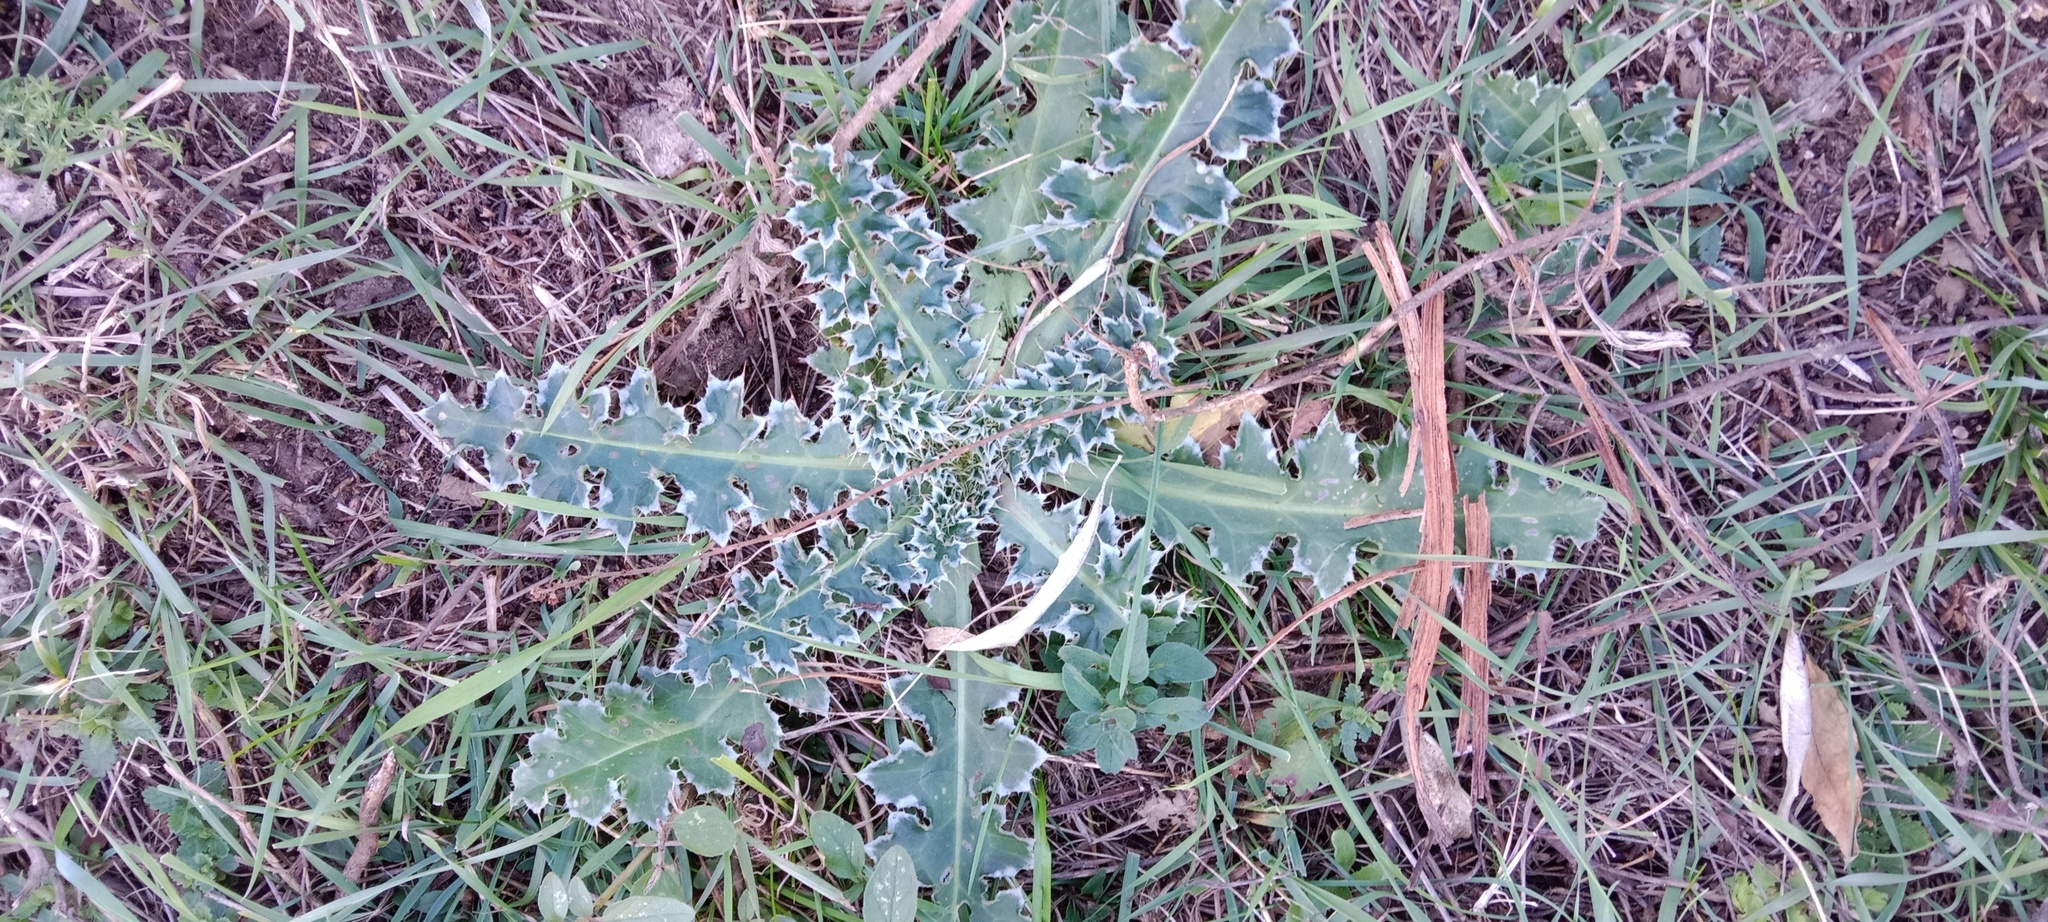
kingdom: Plantae
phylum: Tracheophyta
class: Magnoliopsida
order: Asterales
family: Asteraceae
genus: Carduus
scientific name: Carduus acanthoides
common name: Plumeless thistle
